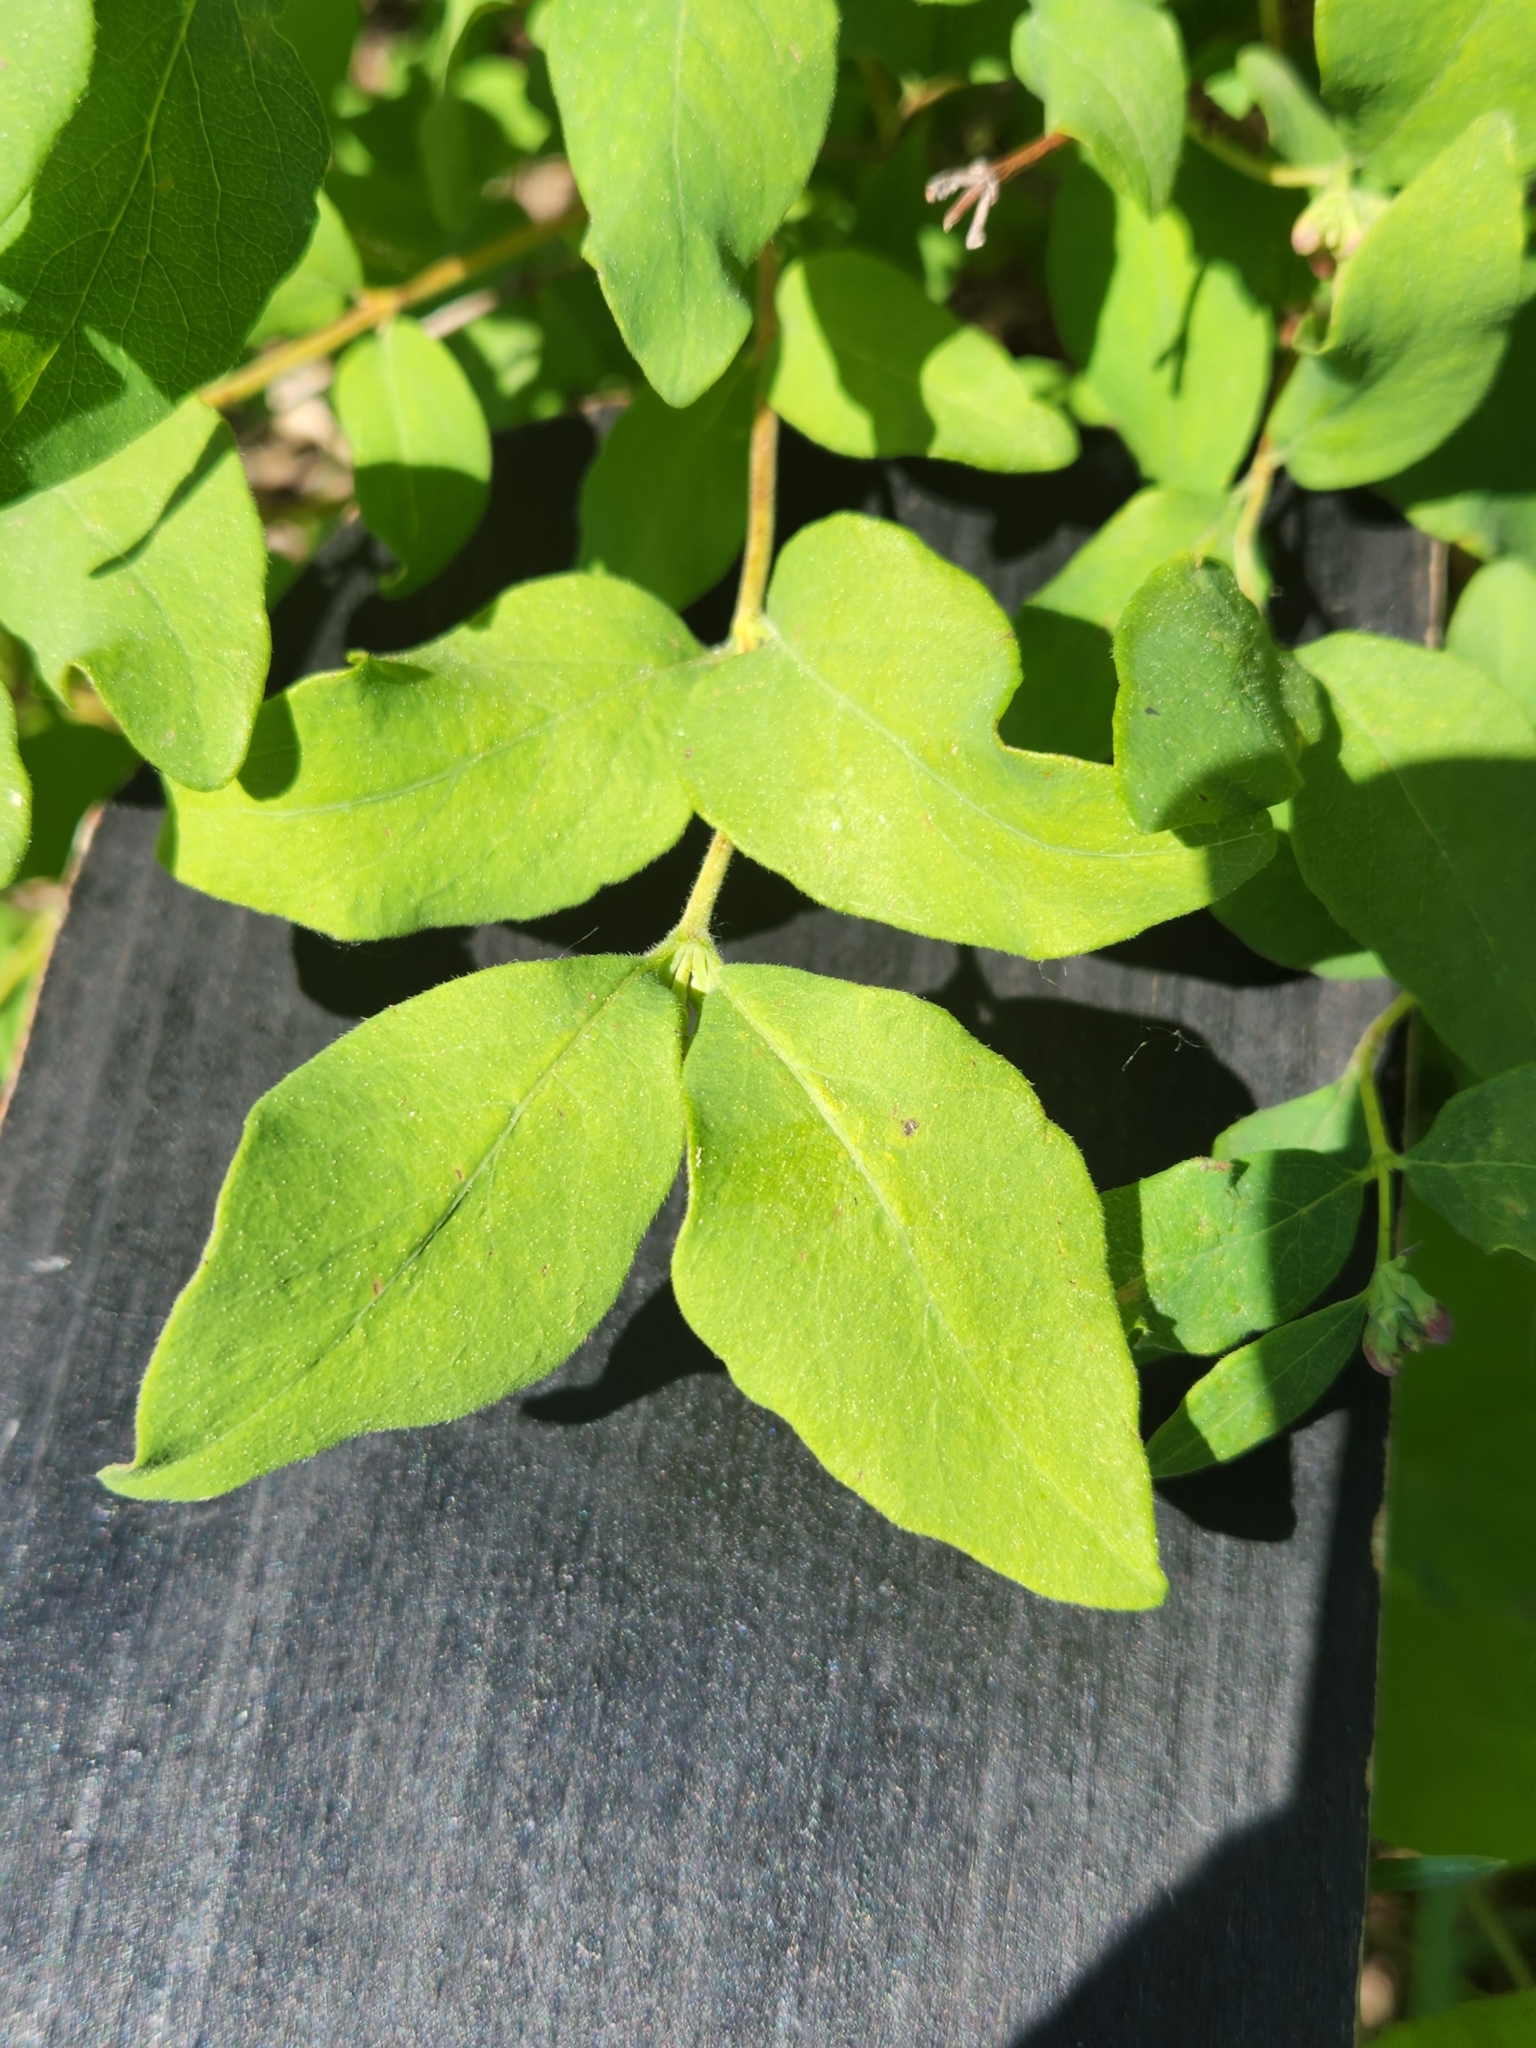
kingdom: Plantae
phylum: Tracheophyta
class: Magnoliopsida
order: Dipsacales
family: Caprifoliaceae
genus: Symphoricarpos
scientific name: Symphoricarpos occidentalis
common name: Wolfberry
